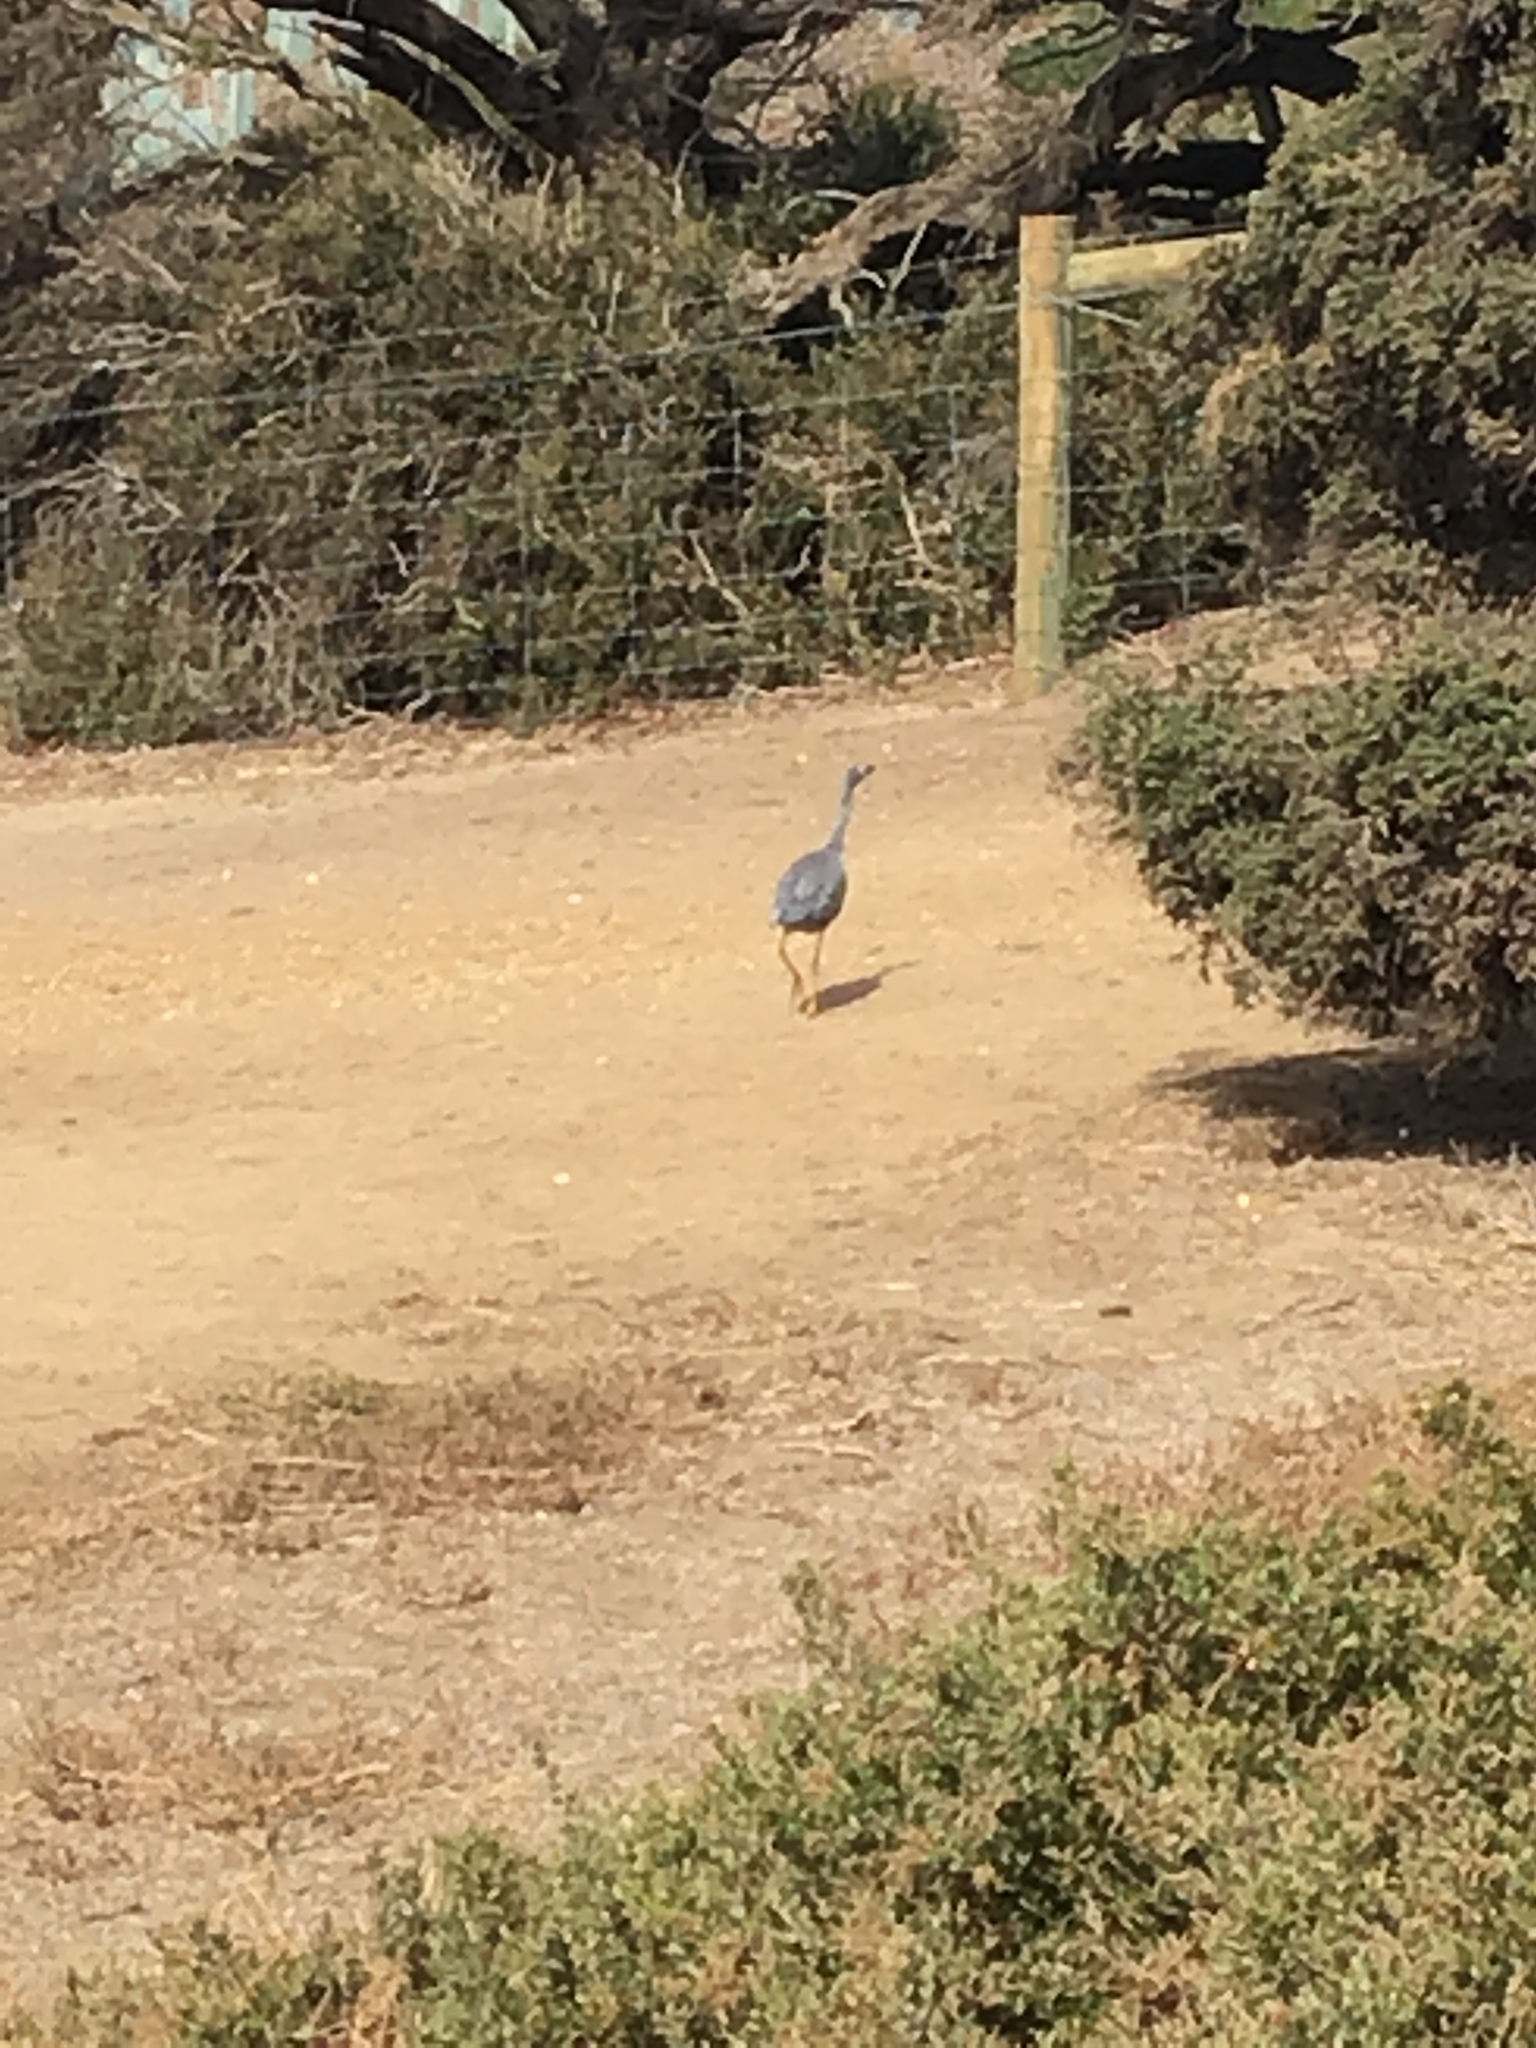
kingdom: Animalia
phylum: Chordata
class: Aves
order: Pelecaniformes
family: Ardeidae
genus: Egretta
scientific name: Egretta novaehollandiae
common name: White-faced heron
